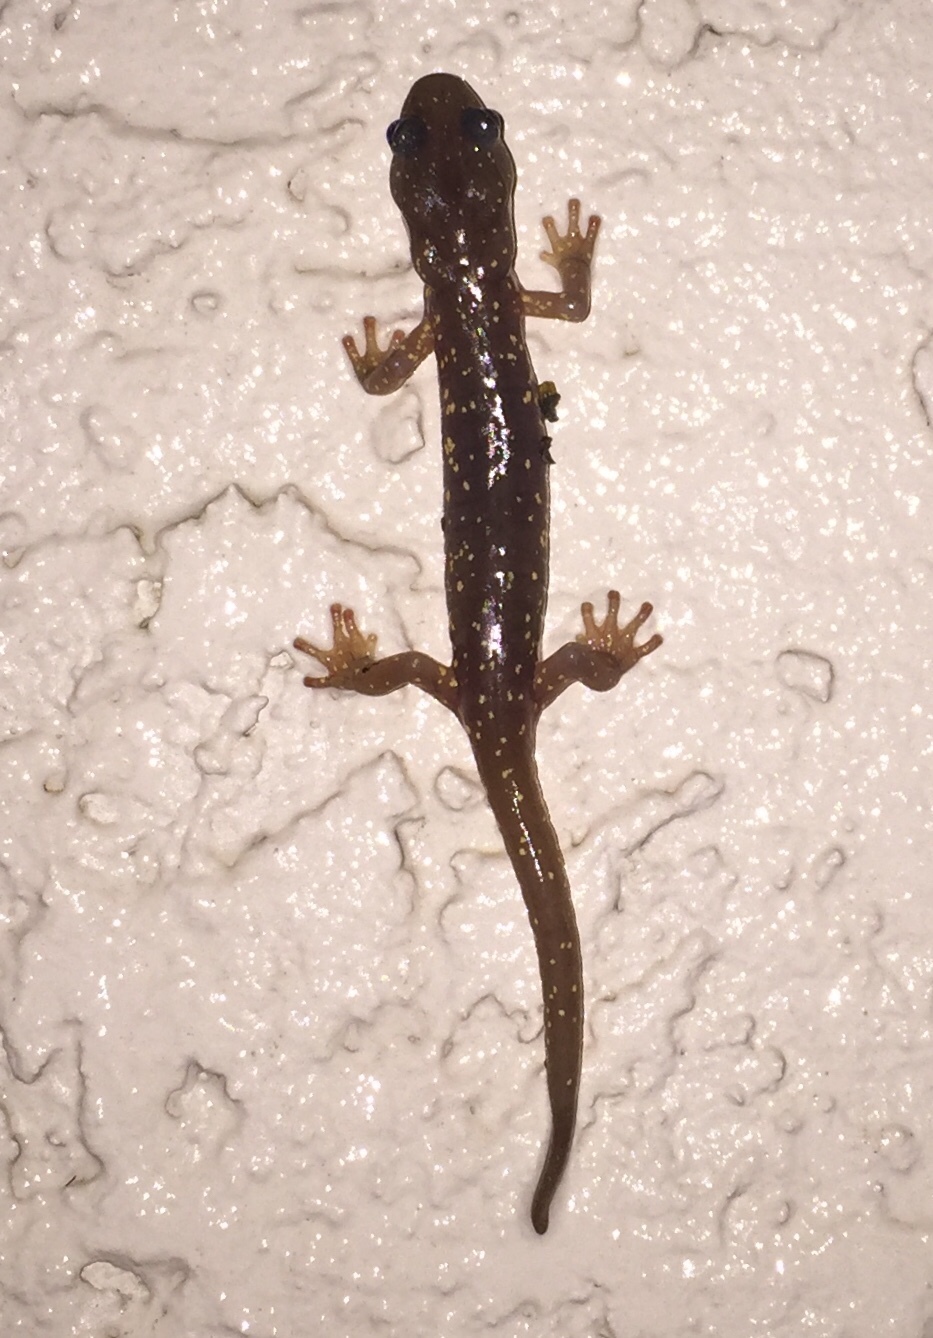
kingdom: Animalia
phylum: Chordata
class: Amphibia
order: Caudata
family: Plethodontidae
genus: Aneides
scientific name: Aneides lugubris
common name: Arboreal salamander
